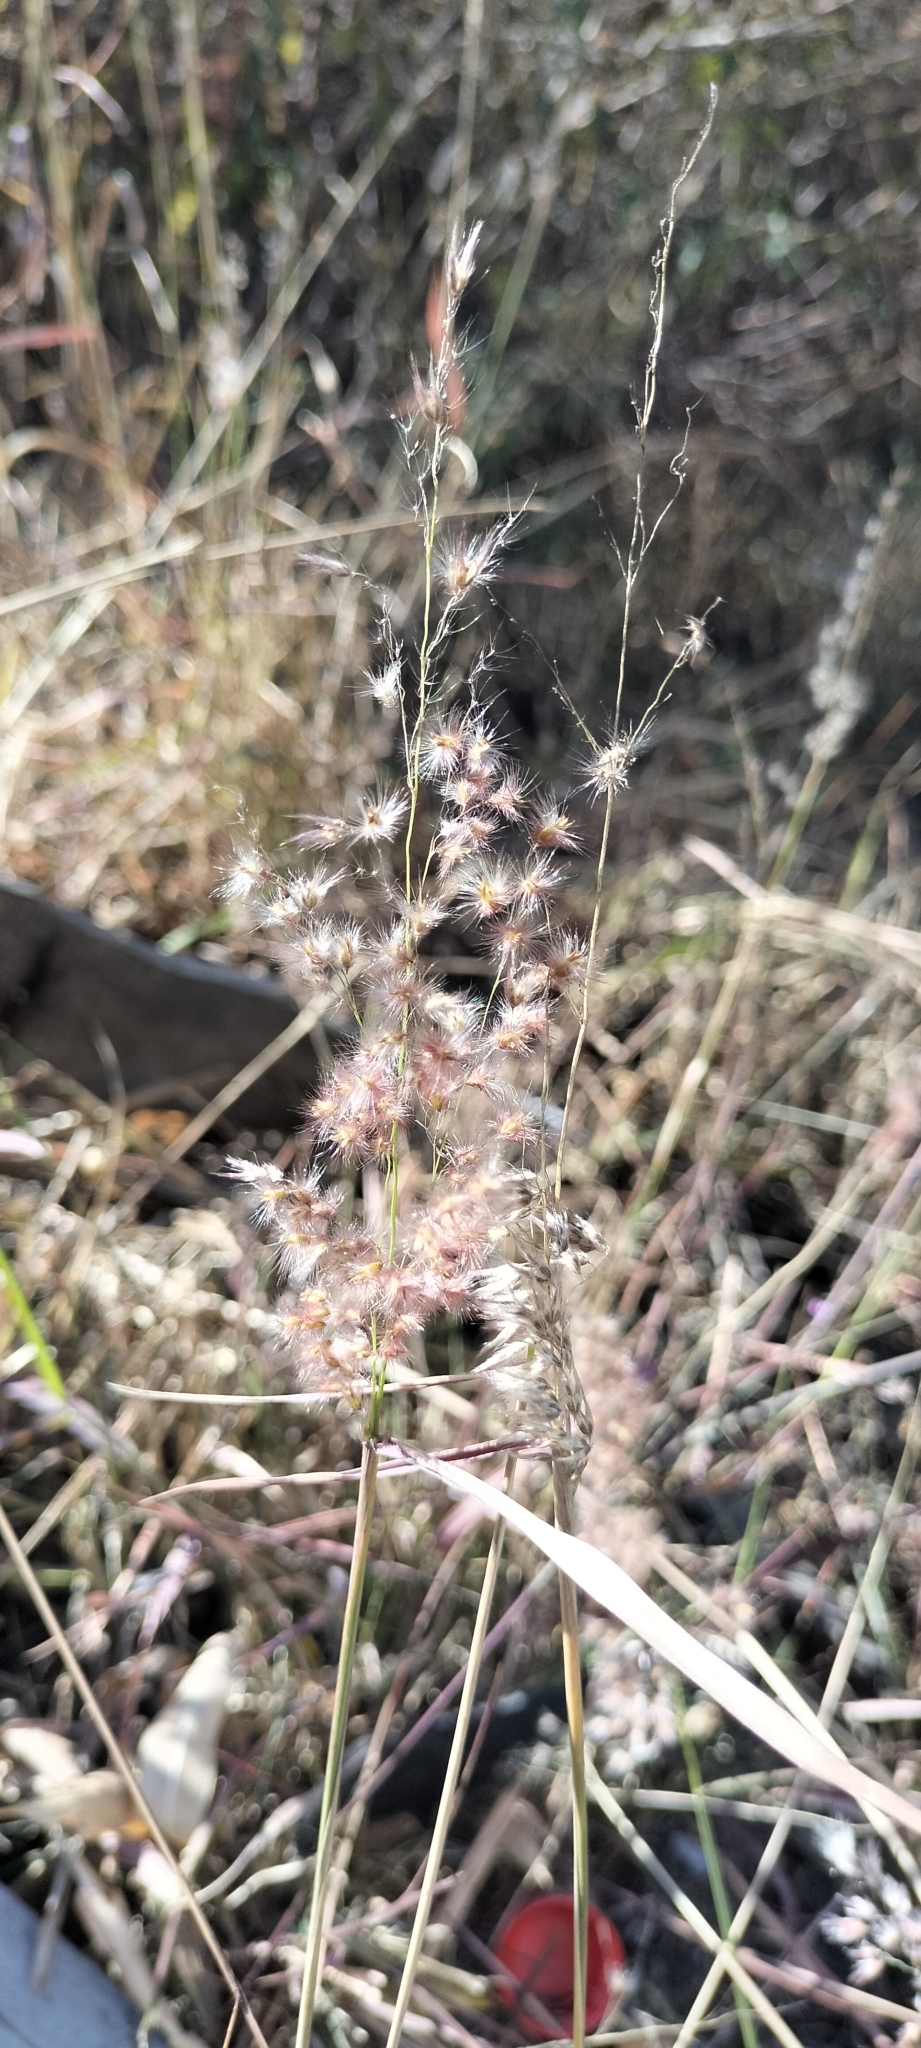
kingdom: Plantae
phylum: Tracheophyta
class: Liliopsida
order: Poales
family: Poaceae
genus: Melinis
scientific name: Melinis repens
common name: Rose natal grass
